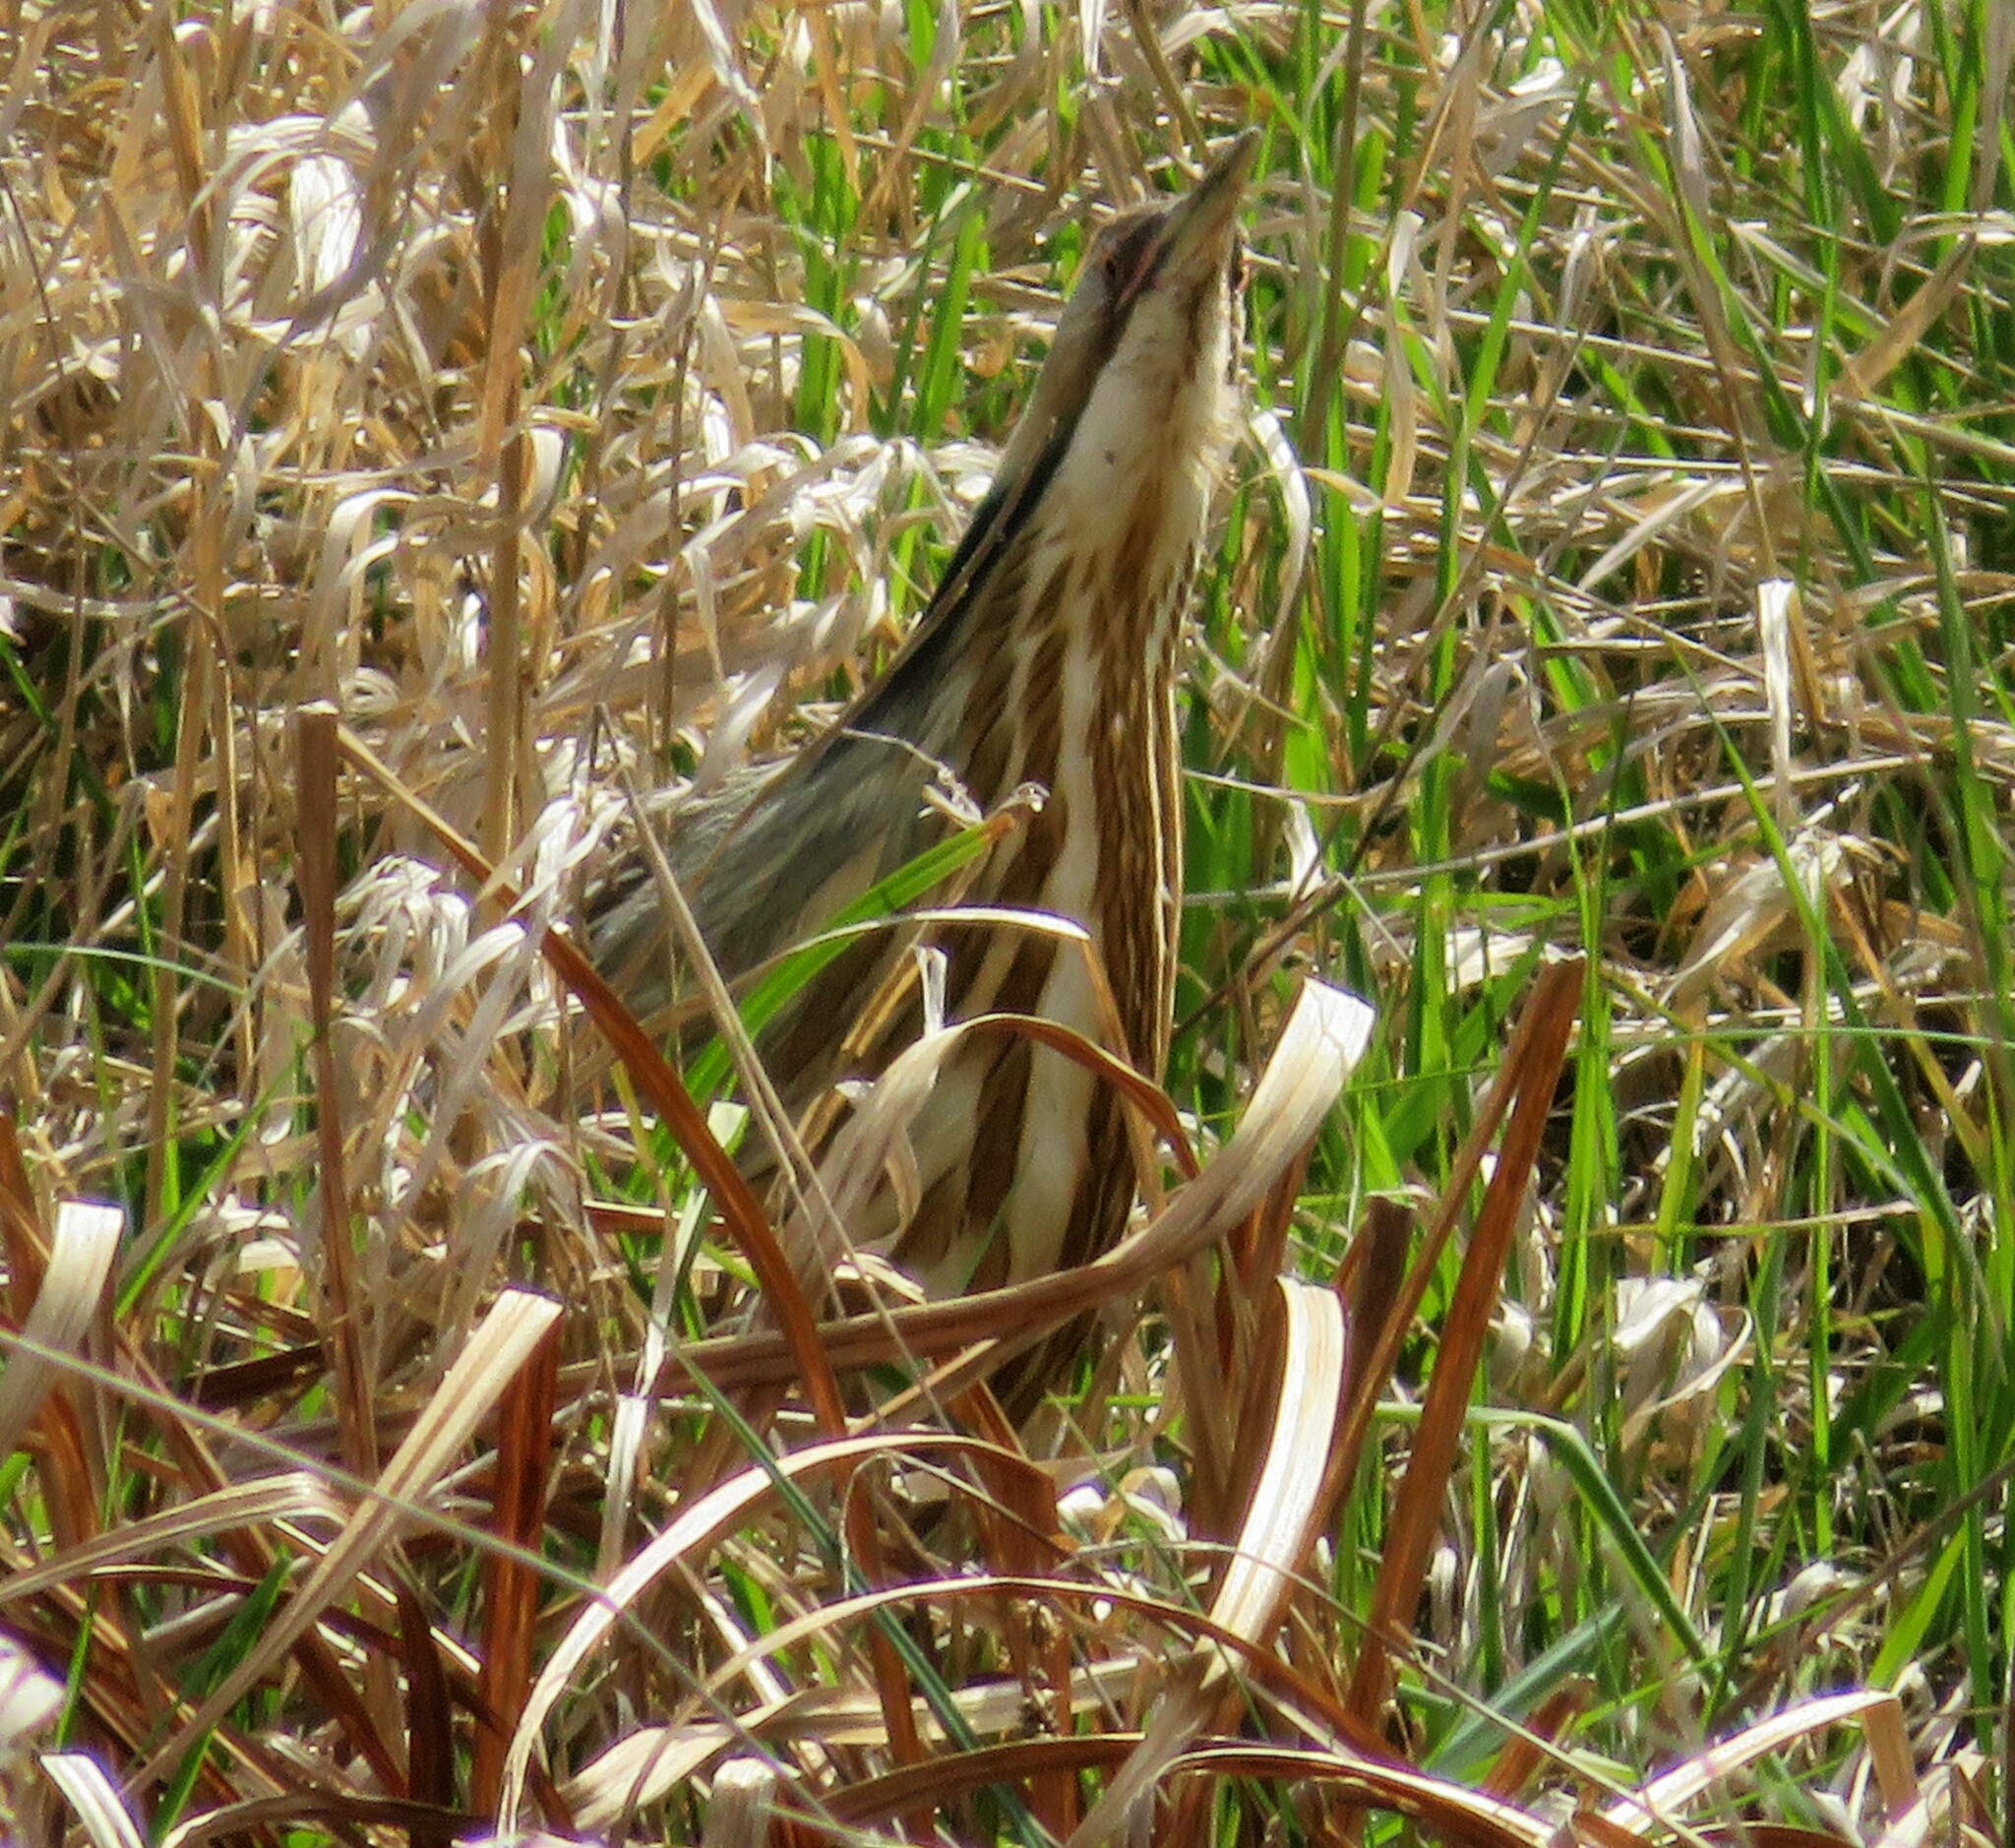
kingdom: Animalia
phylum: Chordata
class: Aves
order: Pelecaniformes
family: Ardeidae
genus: Botaurus
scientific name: Botaurus lentiginosus
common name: American bittern
